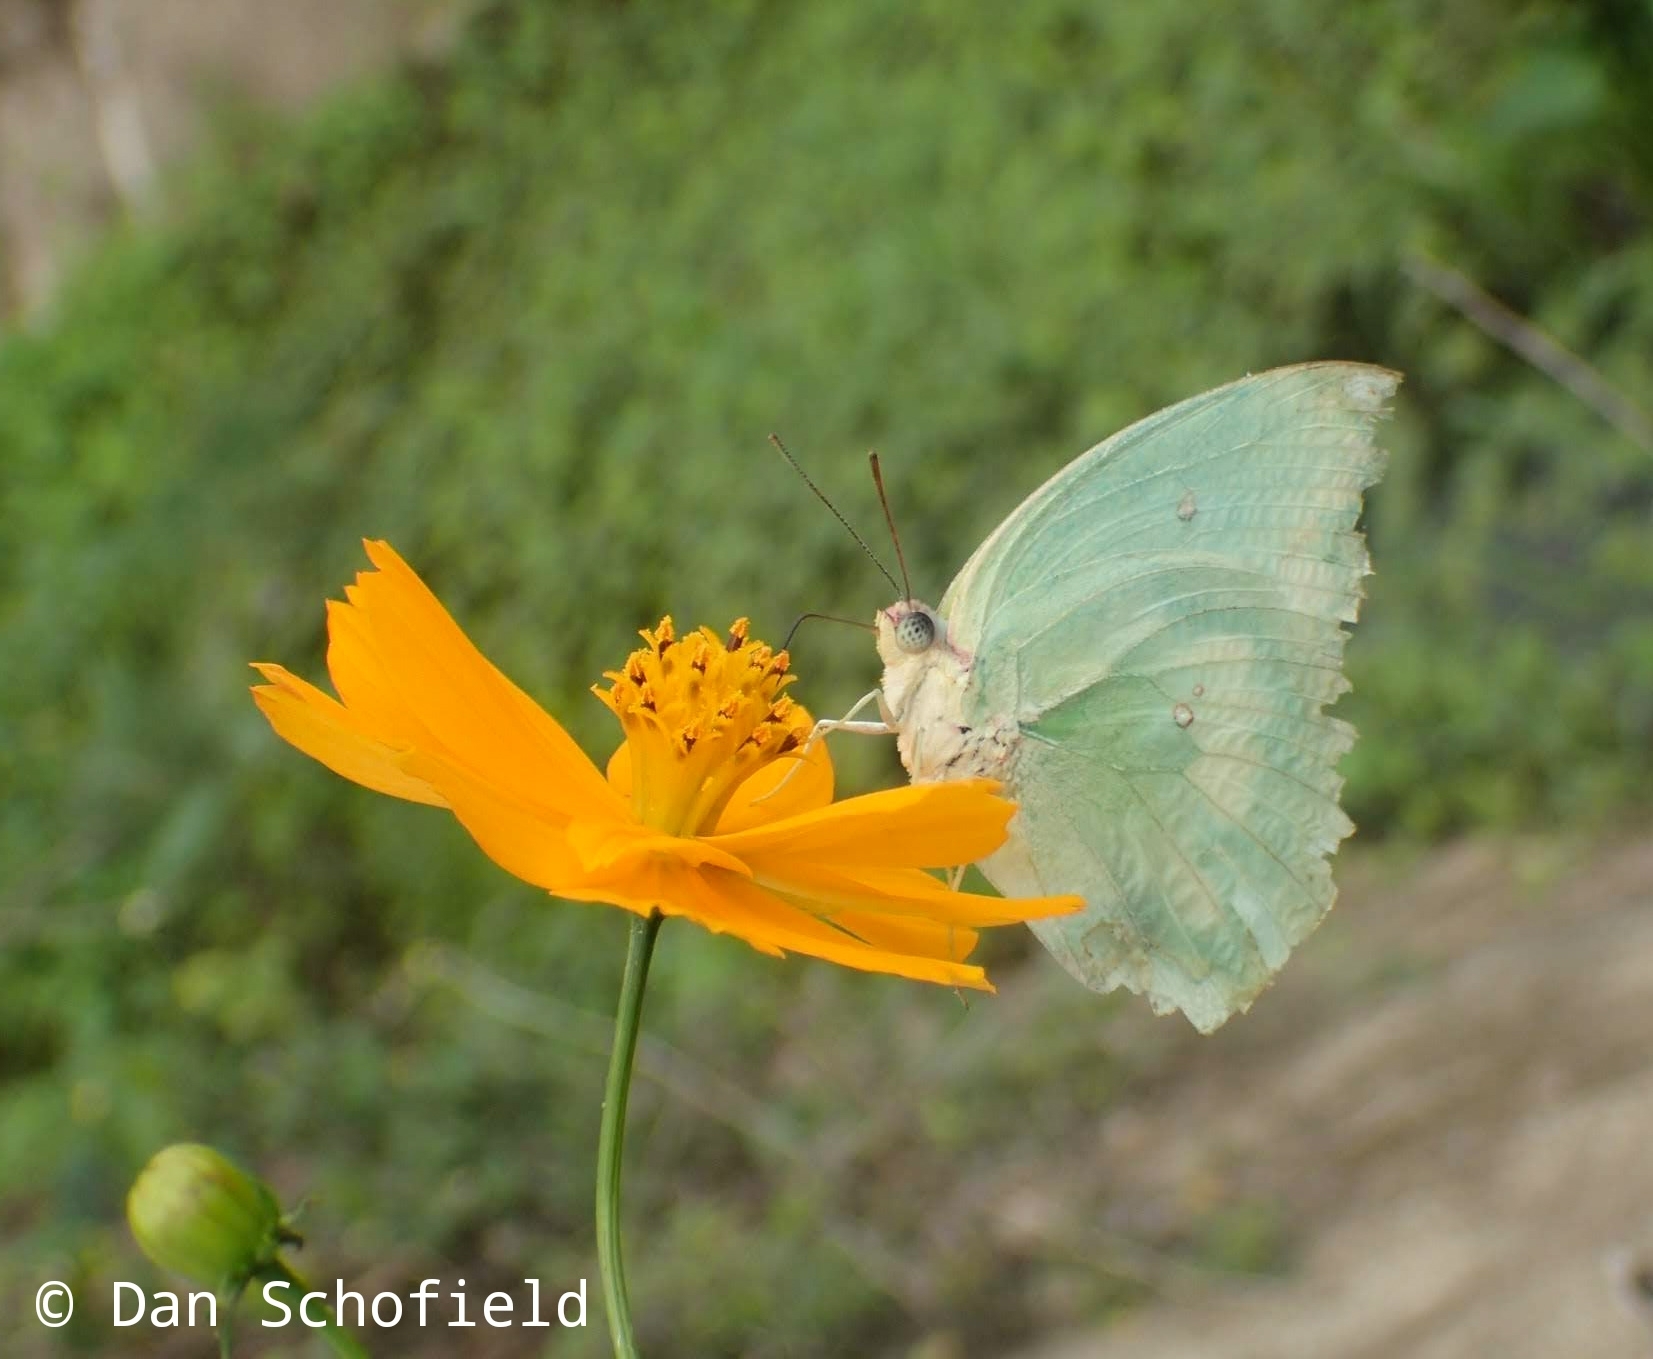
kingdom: Animalia
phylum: Arthropoda
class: Insecta
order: Lepidoptera
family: Pieridae
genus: Catopsilia
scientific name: Catopsilia pomona
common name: Common emigrant
